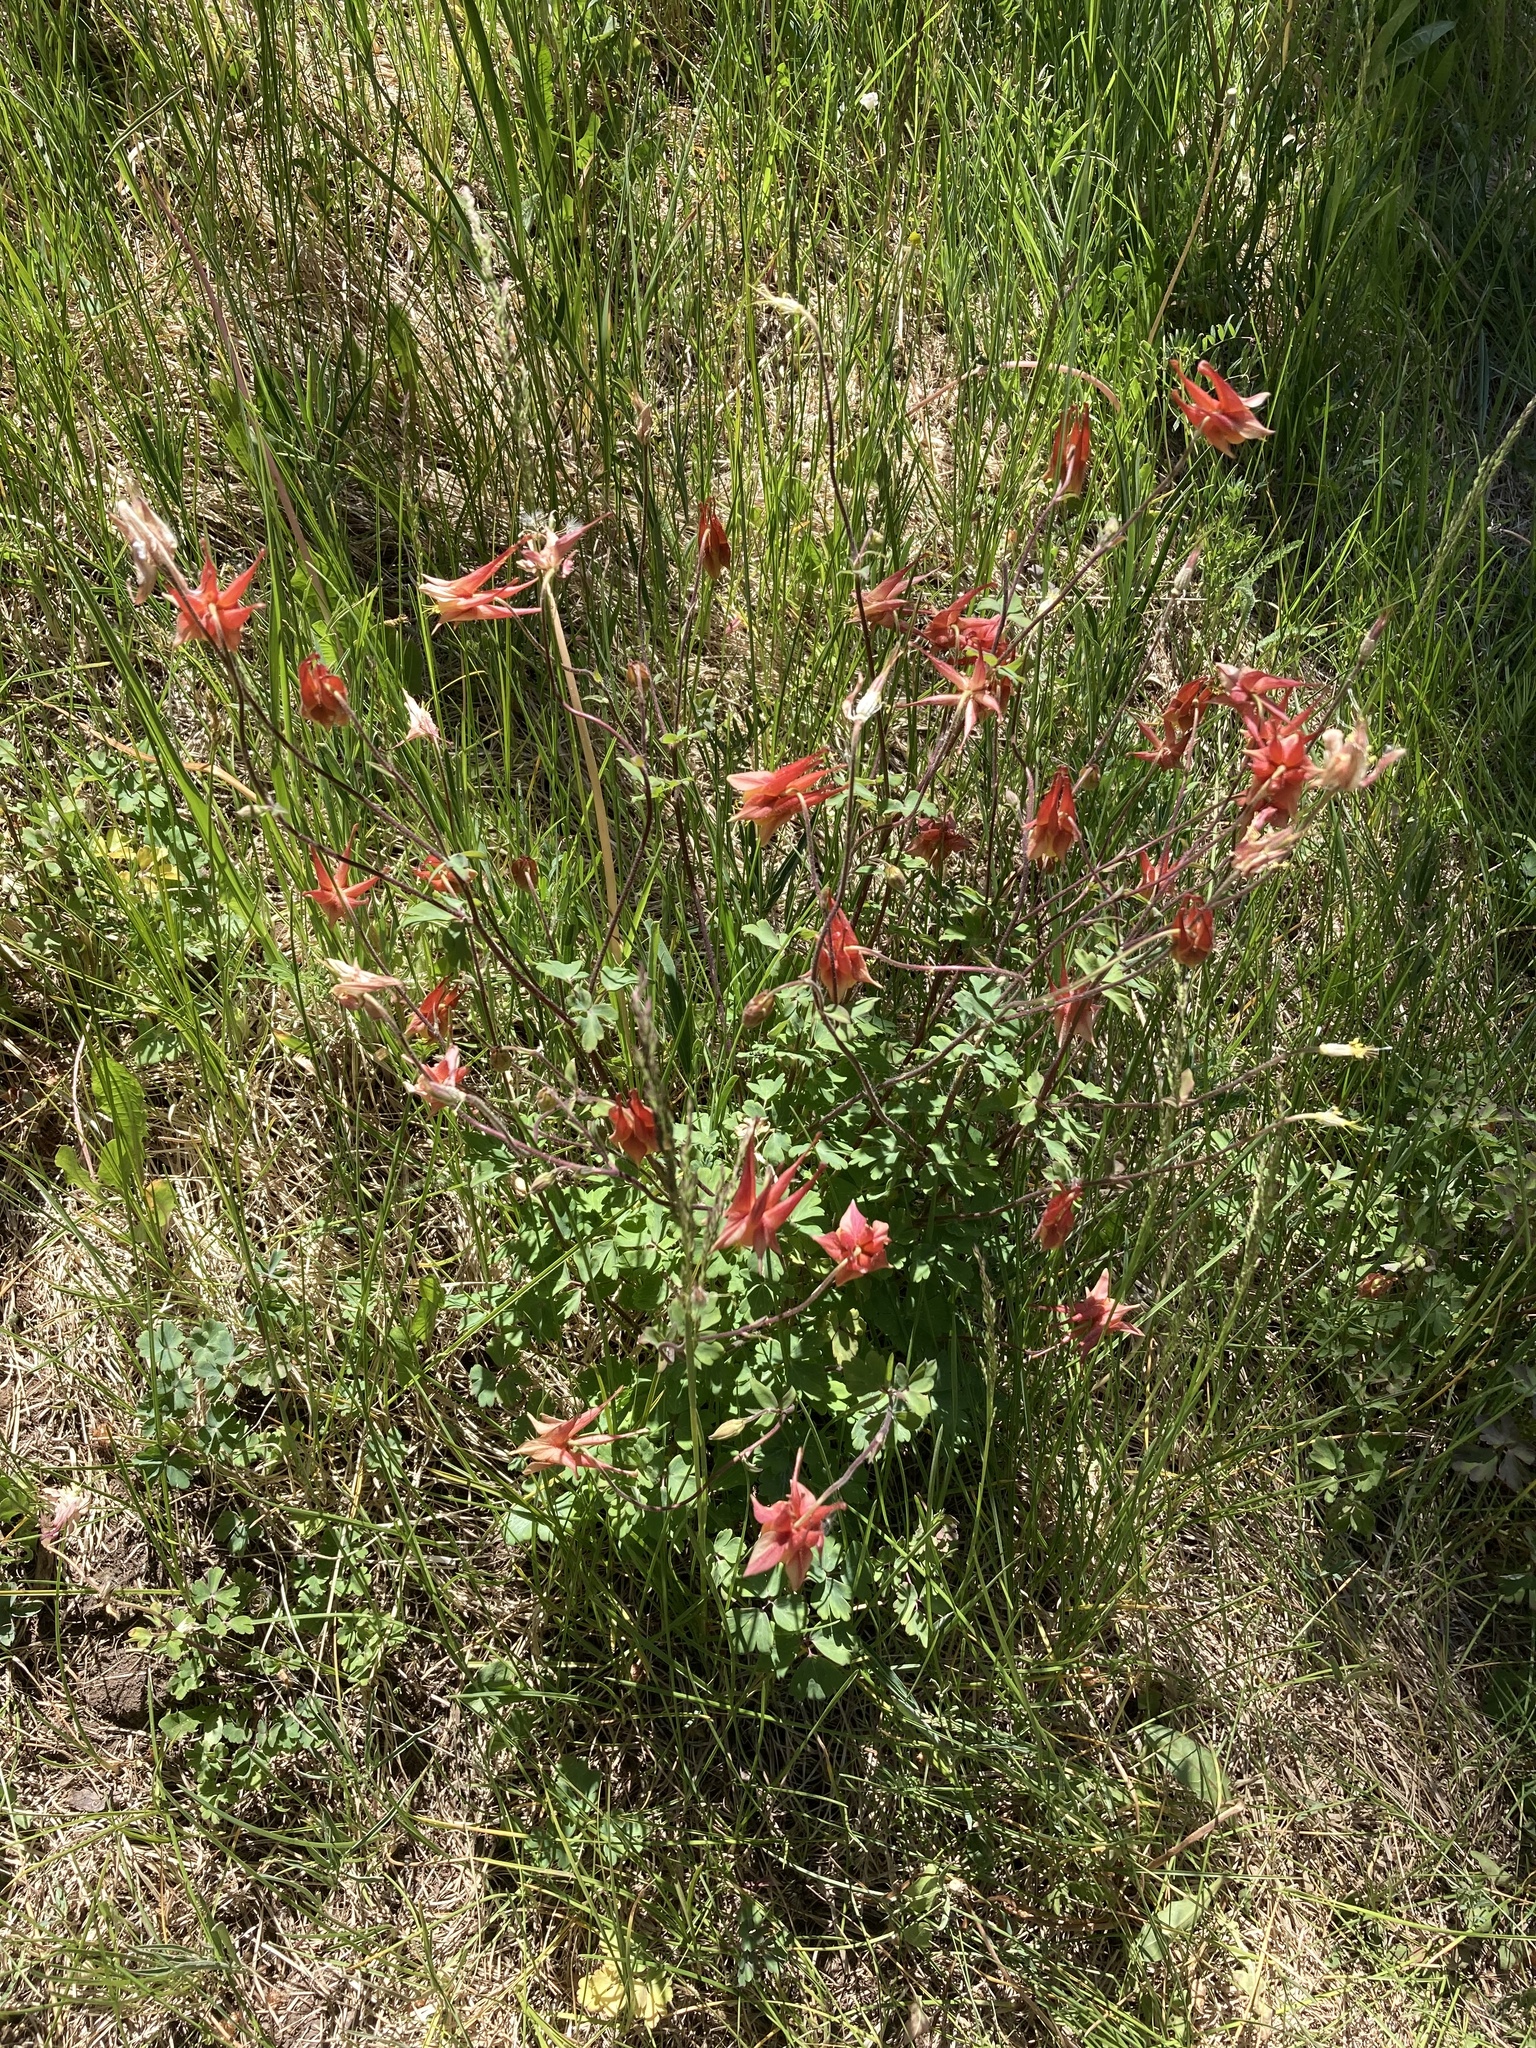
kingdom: Plantae
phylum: Tracheophyta
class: Magnoliopsida
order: Ranunculales
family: Ranunculaceae
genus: Aquilegia
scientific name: Aquilegia desertorum
